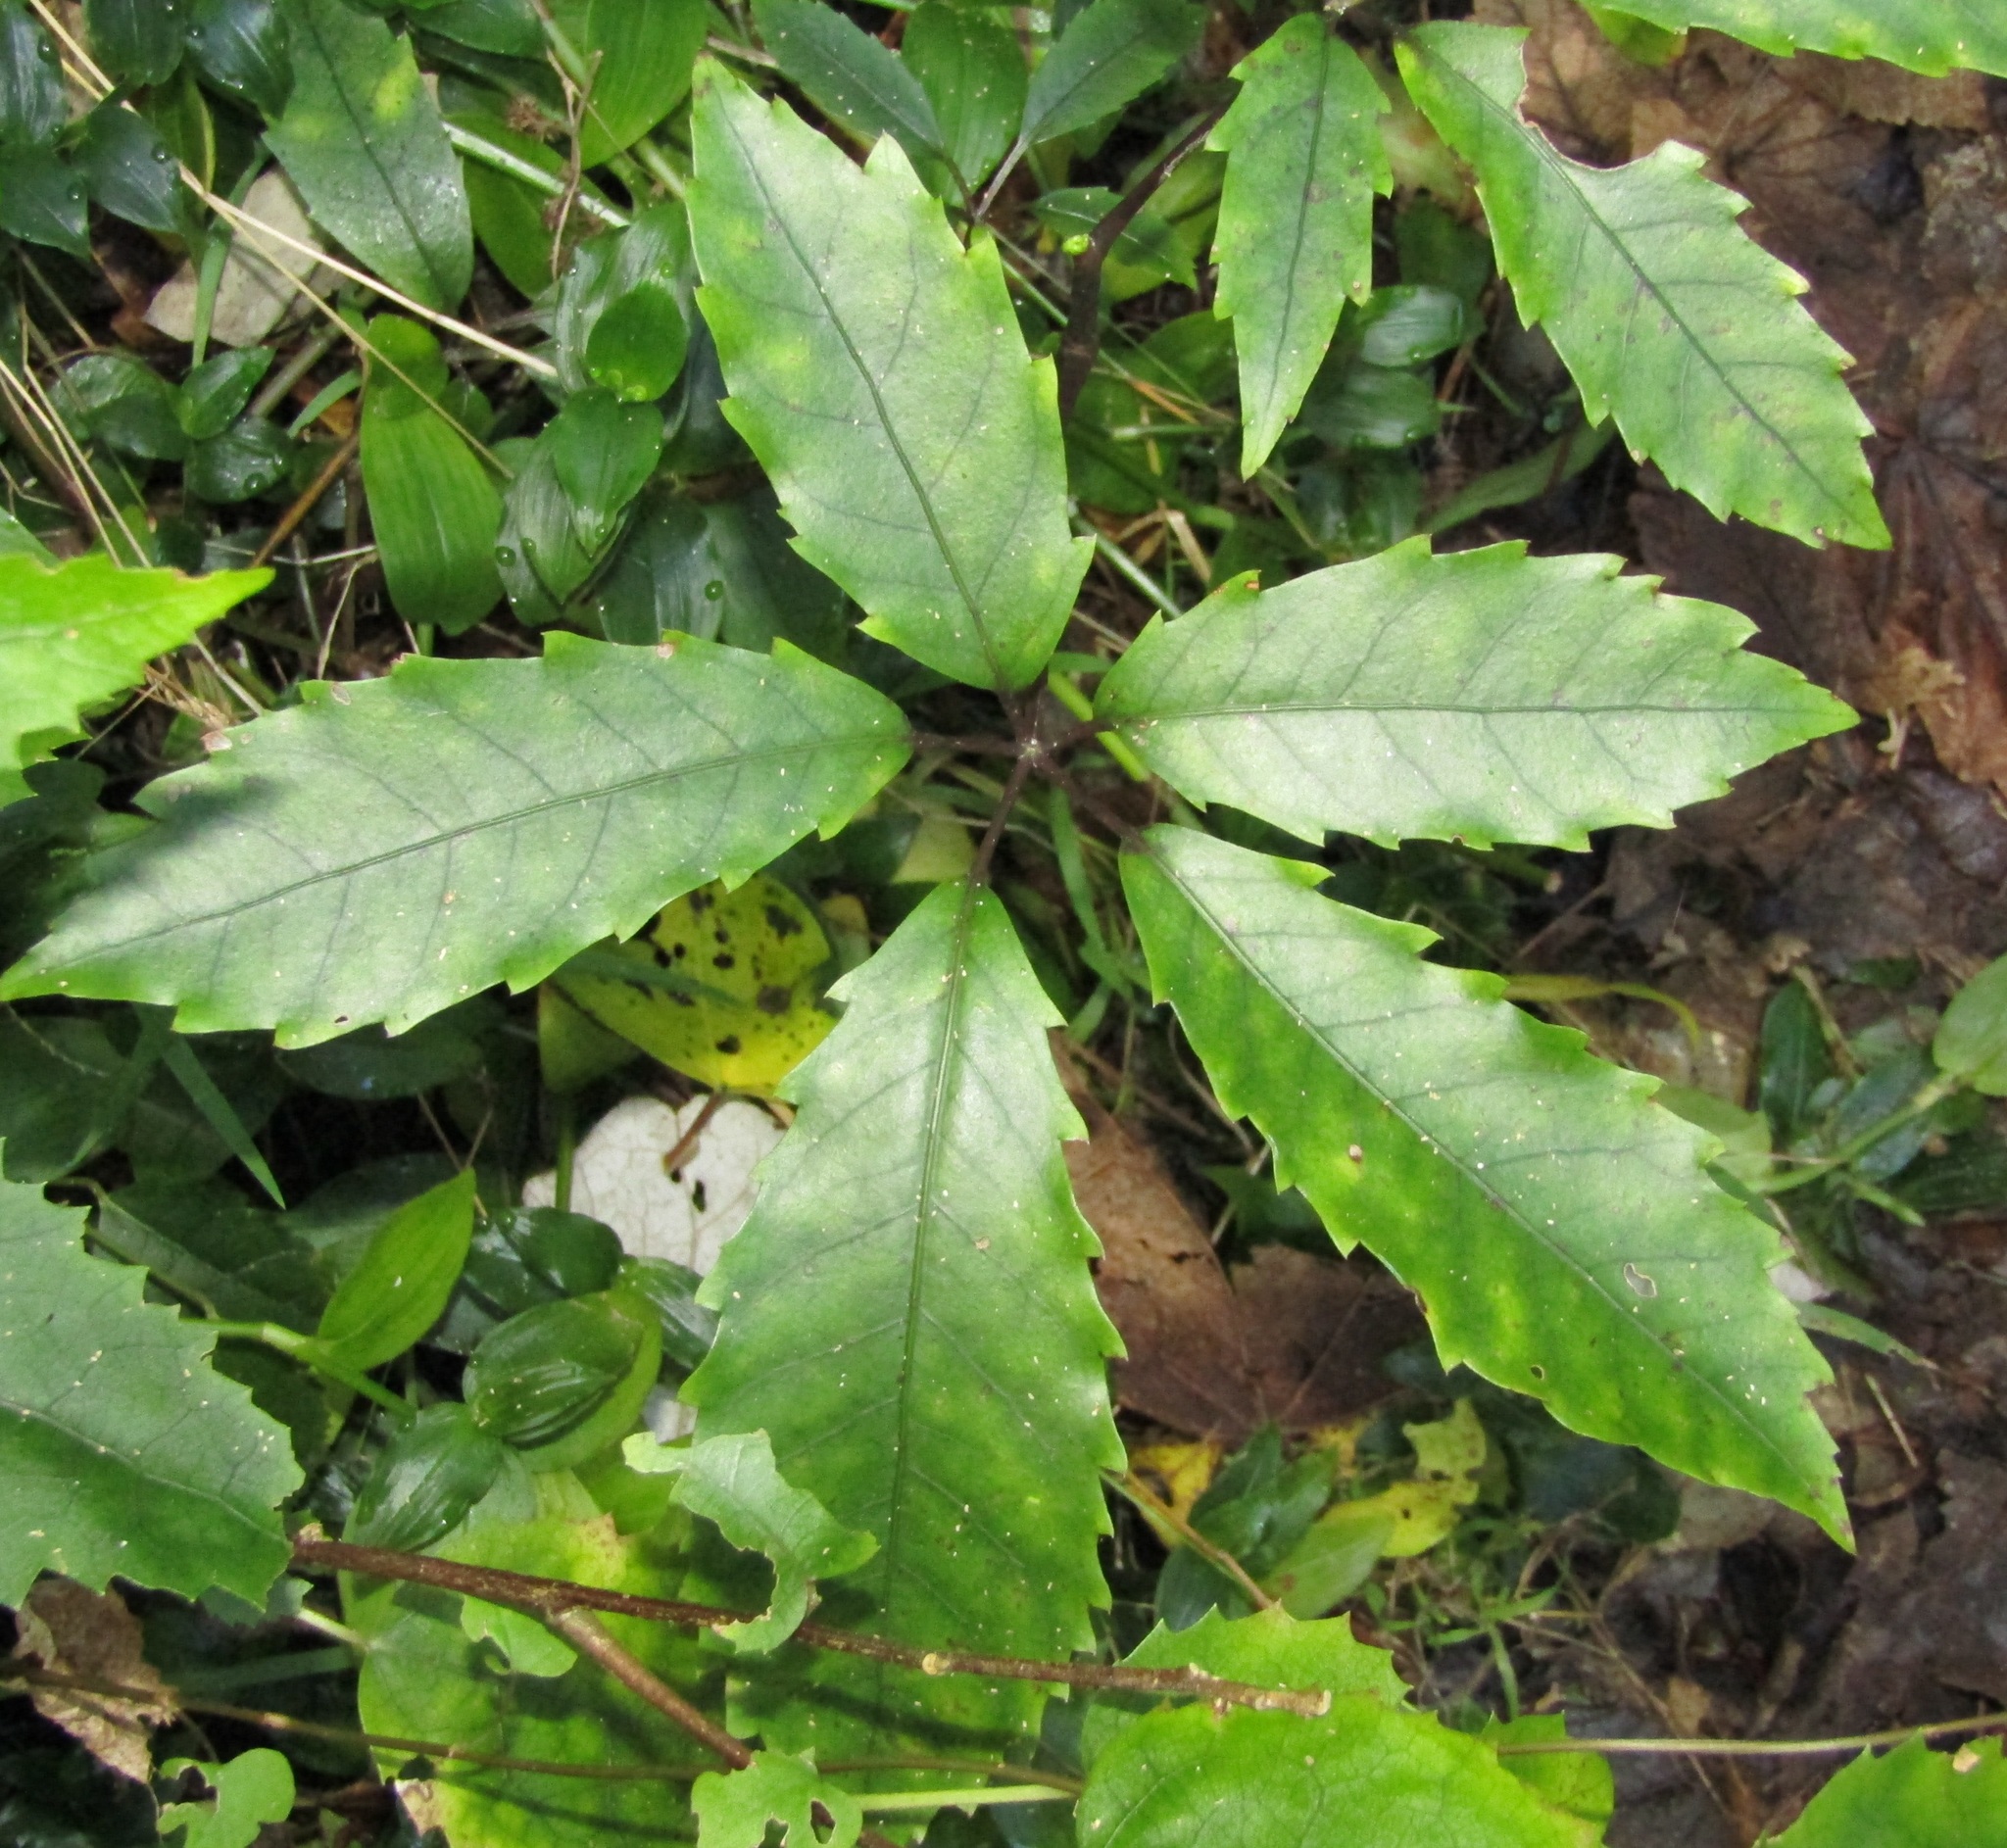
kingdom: Plantae
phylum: Tracheophyta
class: Magnoliopsida
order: Apiales
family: Araliaceae
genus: Neopanax
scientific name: Neopanax arboreus
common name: Five-fingers
